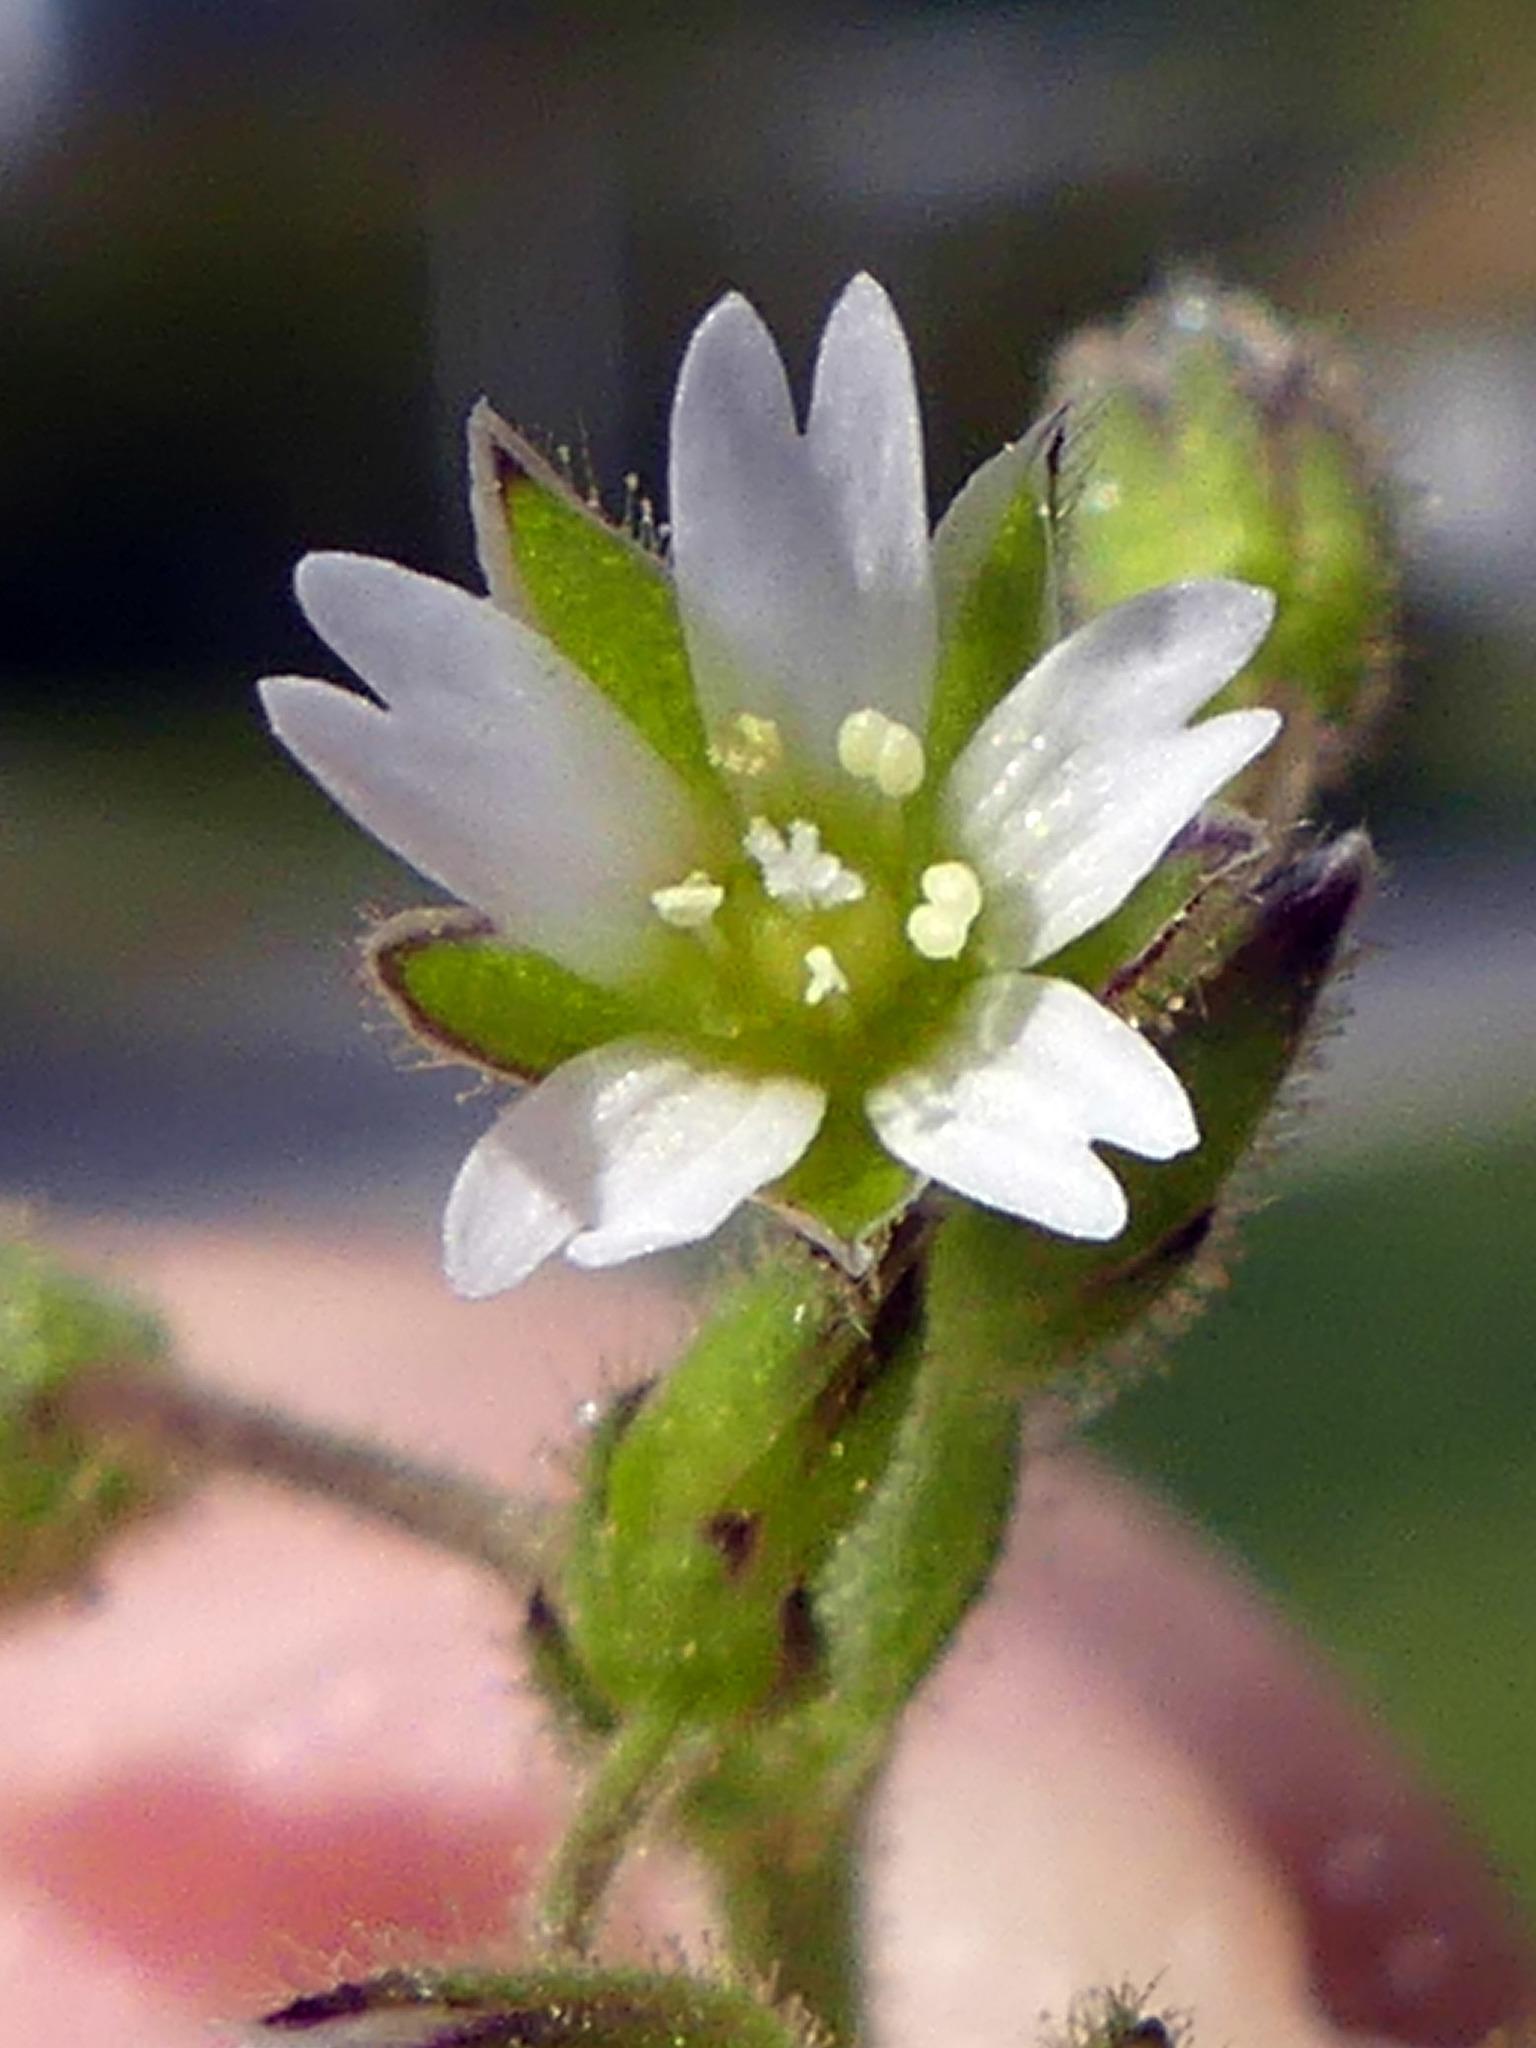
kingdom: Plantae
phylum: Tracheophyta
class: Magnoliopsida
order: Caryophyllales
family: Caryophyllaceae
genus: Cerastium
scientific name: Cerastium glomeratum
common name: Sticky chickweed
